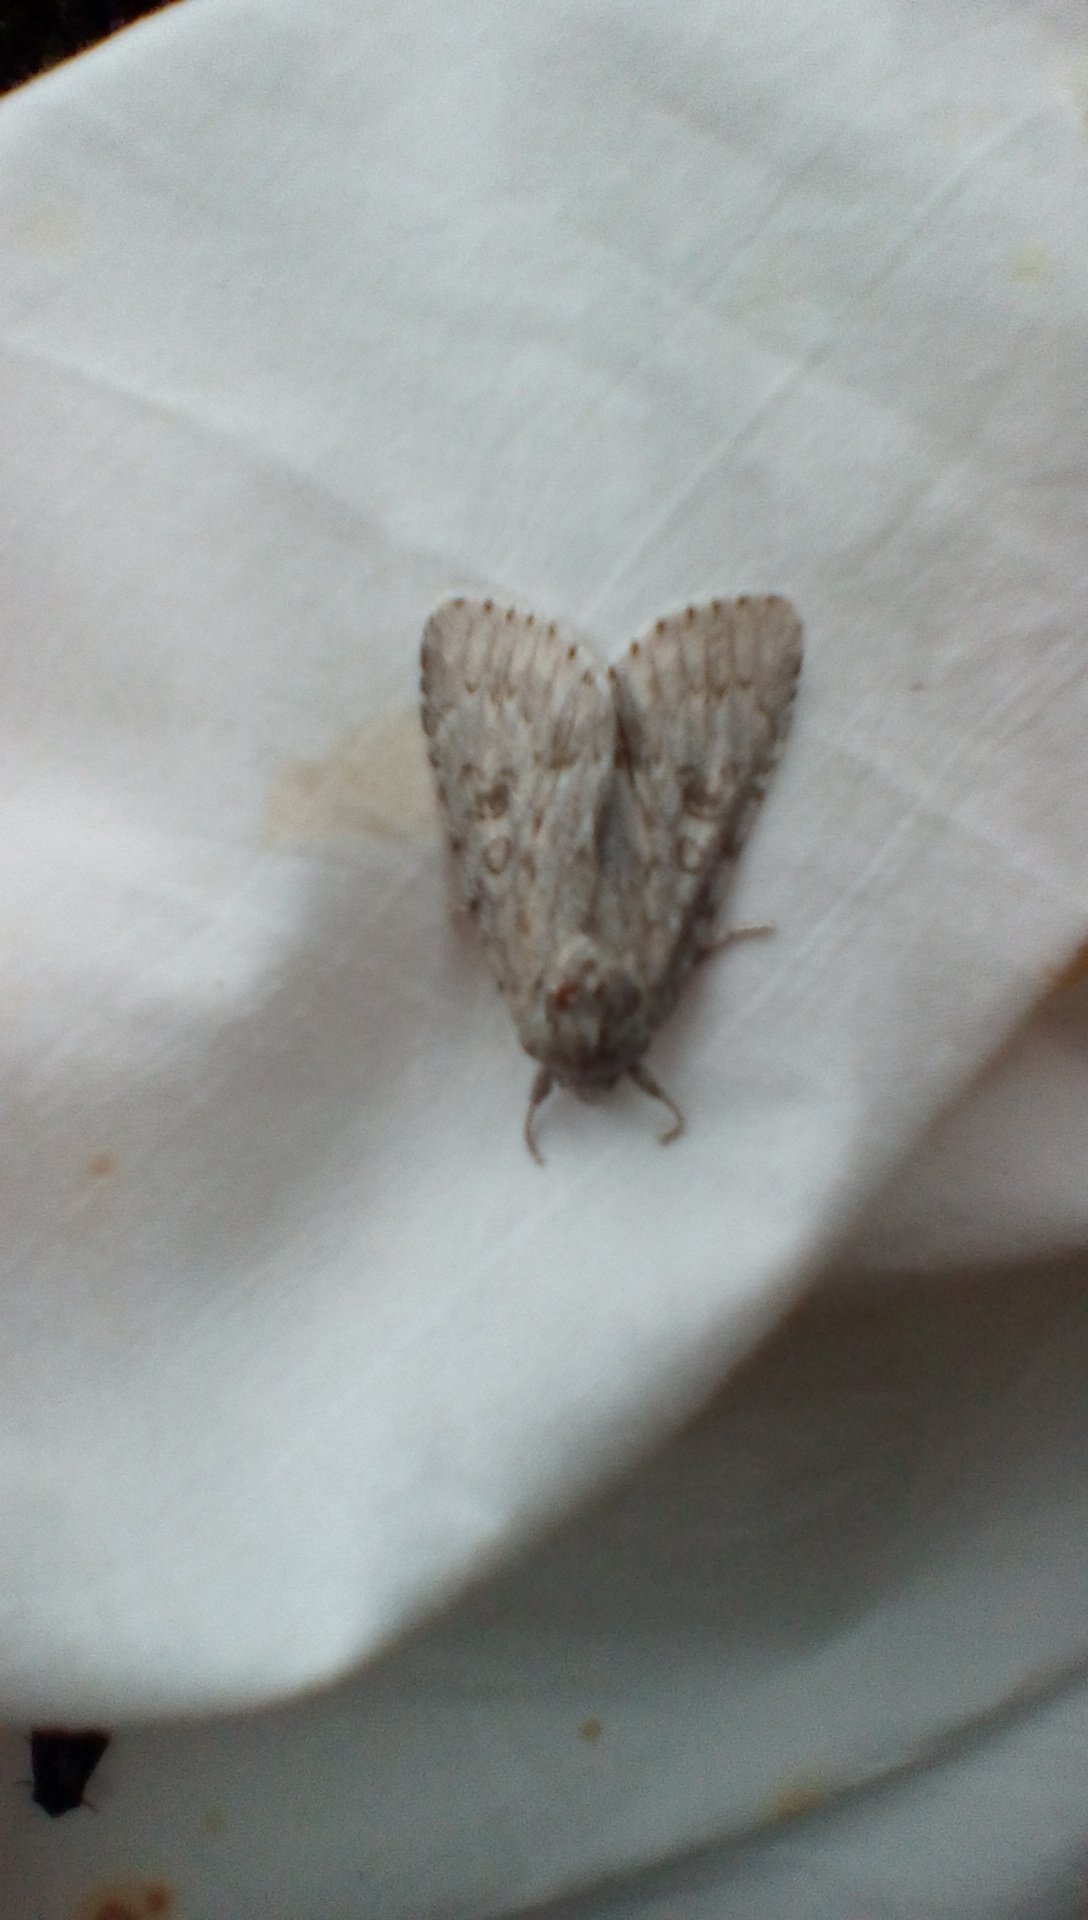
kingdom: Animalia
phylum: Arthropoda
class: Insecta
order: Lepidoptera
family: Noctuidae
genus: Acronicta
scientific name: Acronicta americana
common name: American dagger
